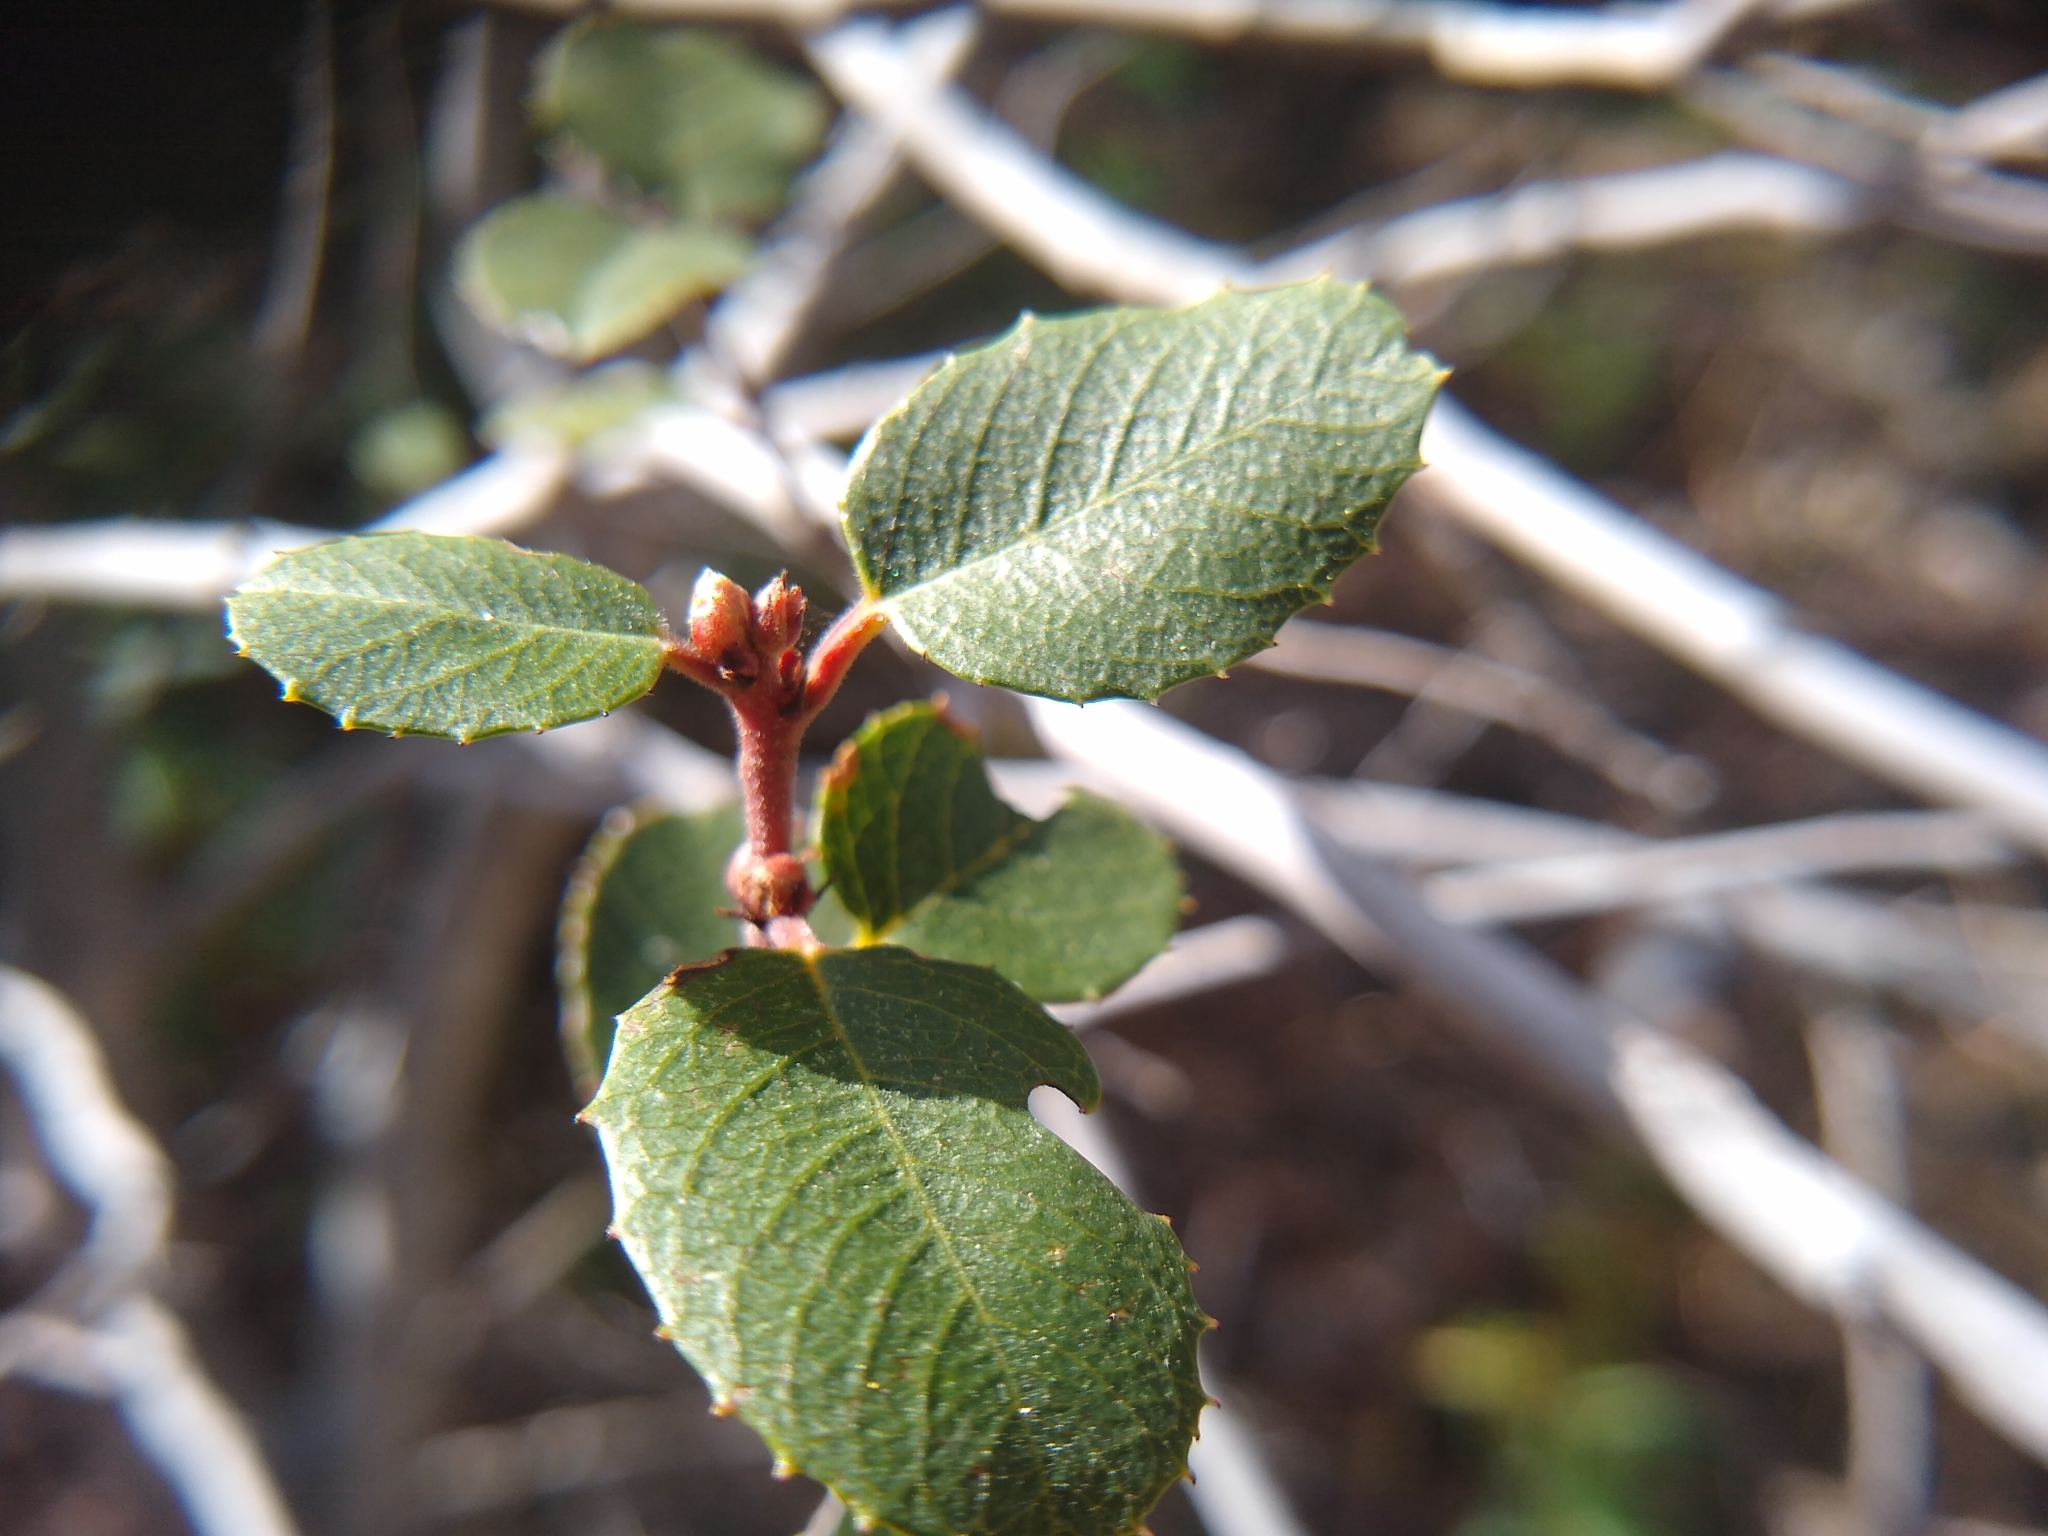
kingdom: Plantae
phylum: Tracheophyta
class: Magnoliopsida
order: Rosales
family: Rhamnaceae
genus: Endotropis
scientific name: Endotropis crocea
